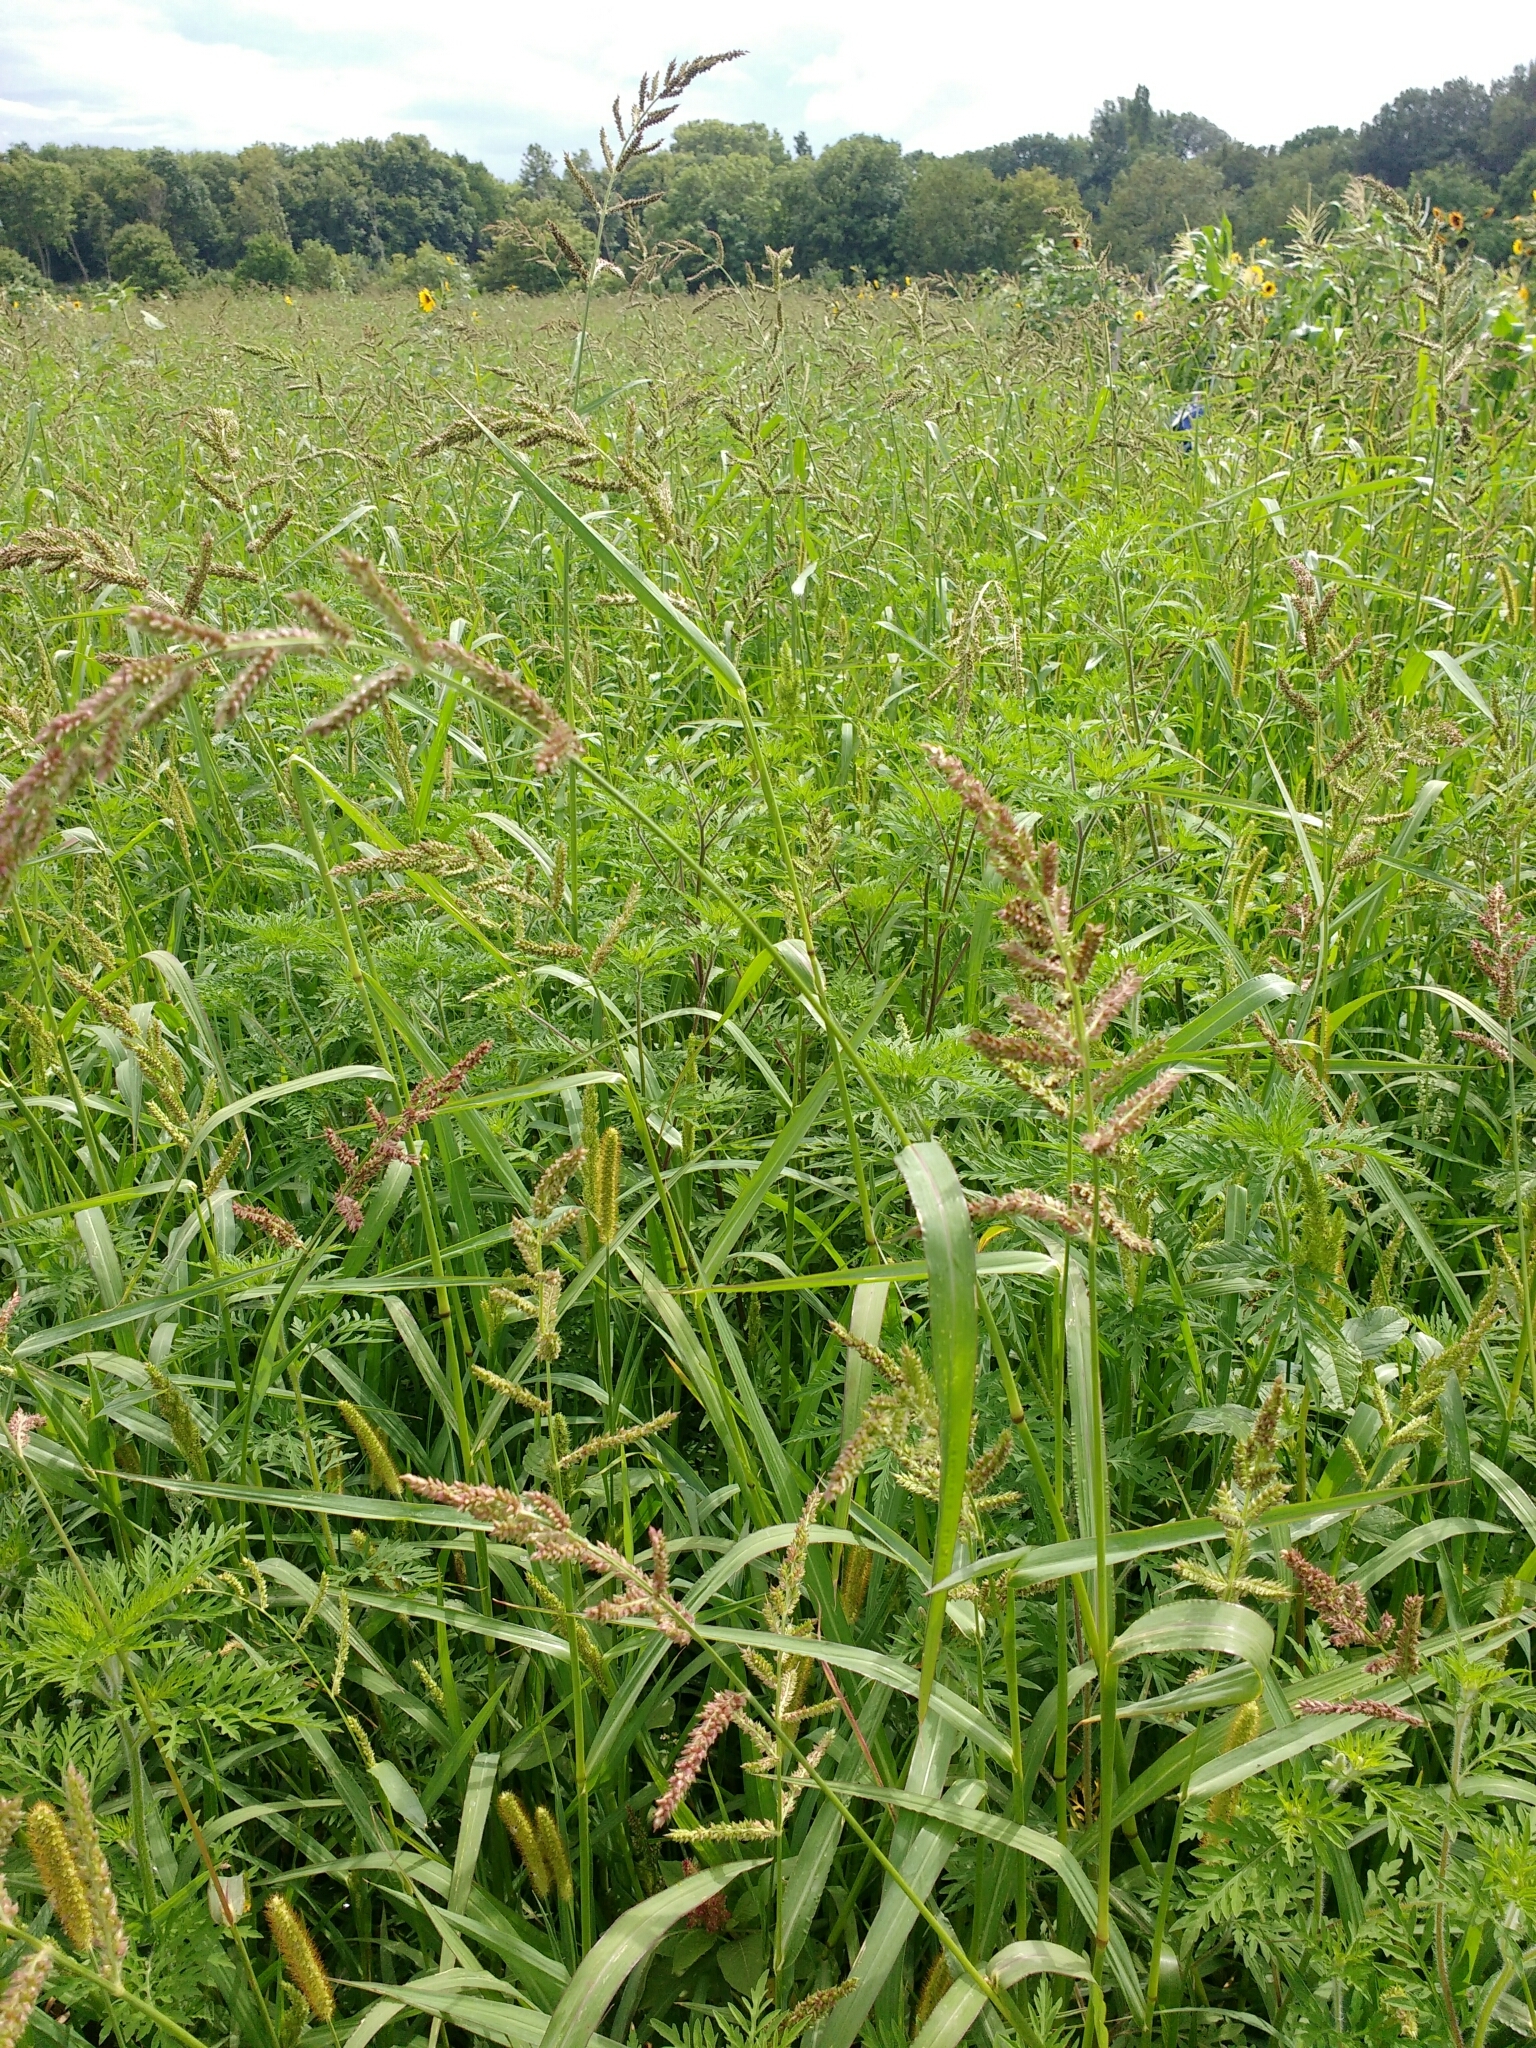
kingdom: Plantae
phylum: Tracheophyta
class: Liliopsida
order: Poales
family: Poaceae
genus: Echinochloa
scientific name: Echinochloa crus-galli
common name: Cockspur
